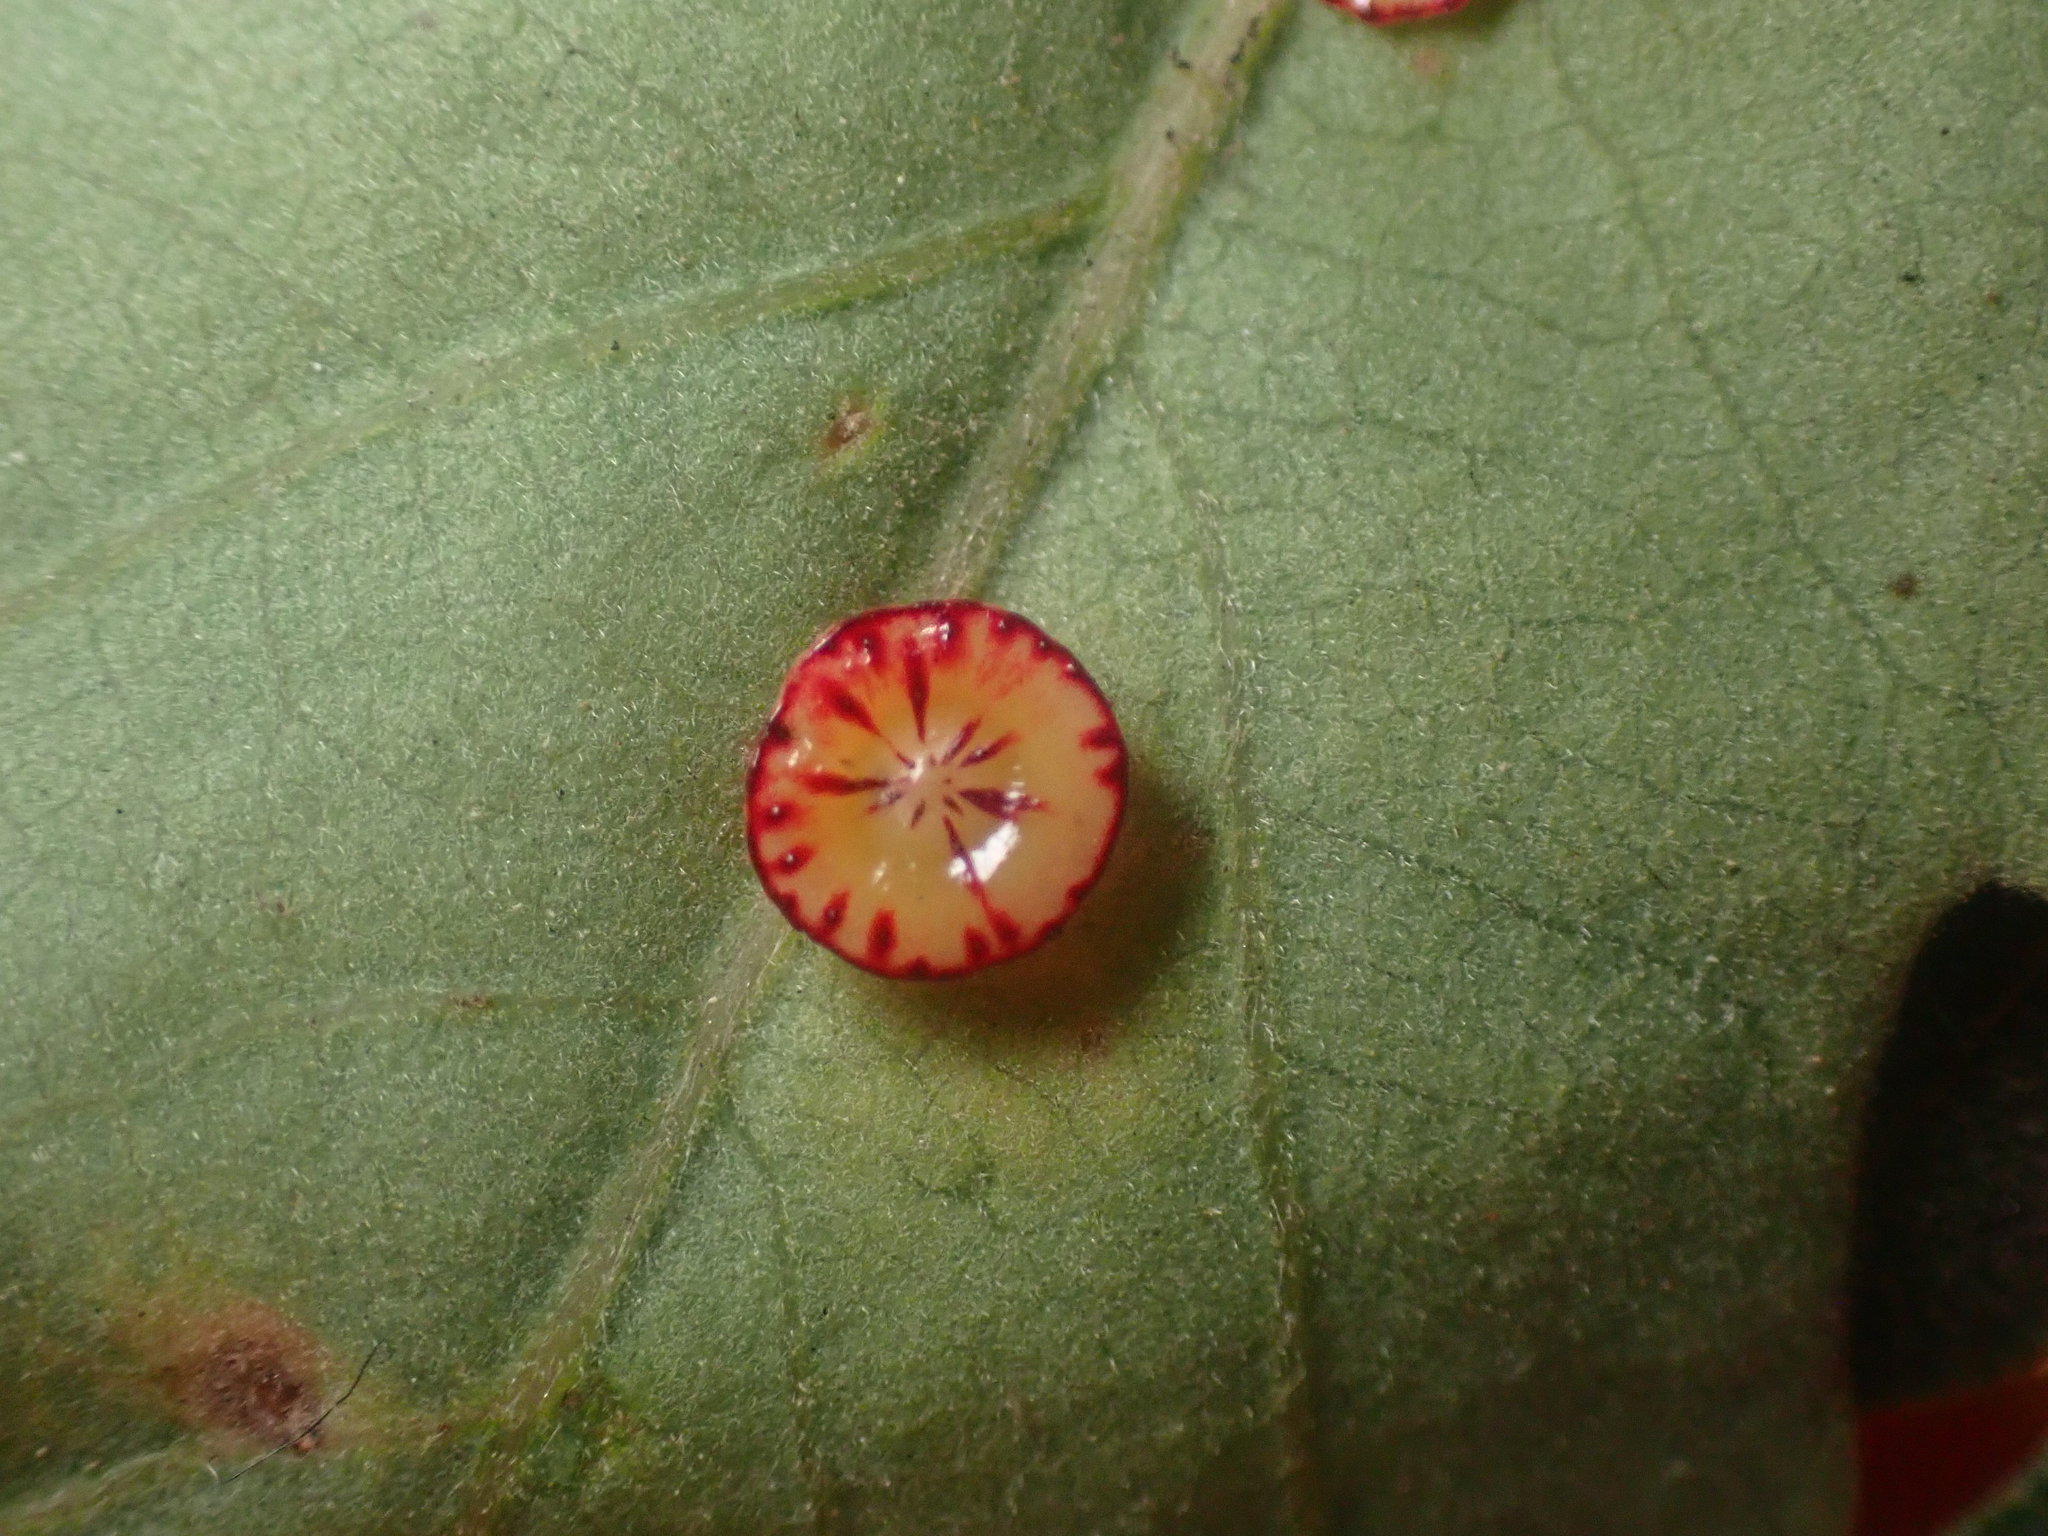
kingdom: Animalia
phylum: Arthropoda
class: Insecta
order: Hymenoptera
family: Cynipidae
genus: Andricus
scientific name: Andricus
